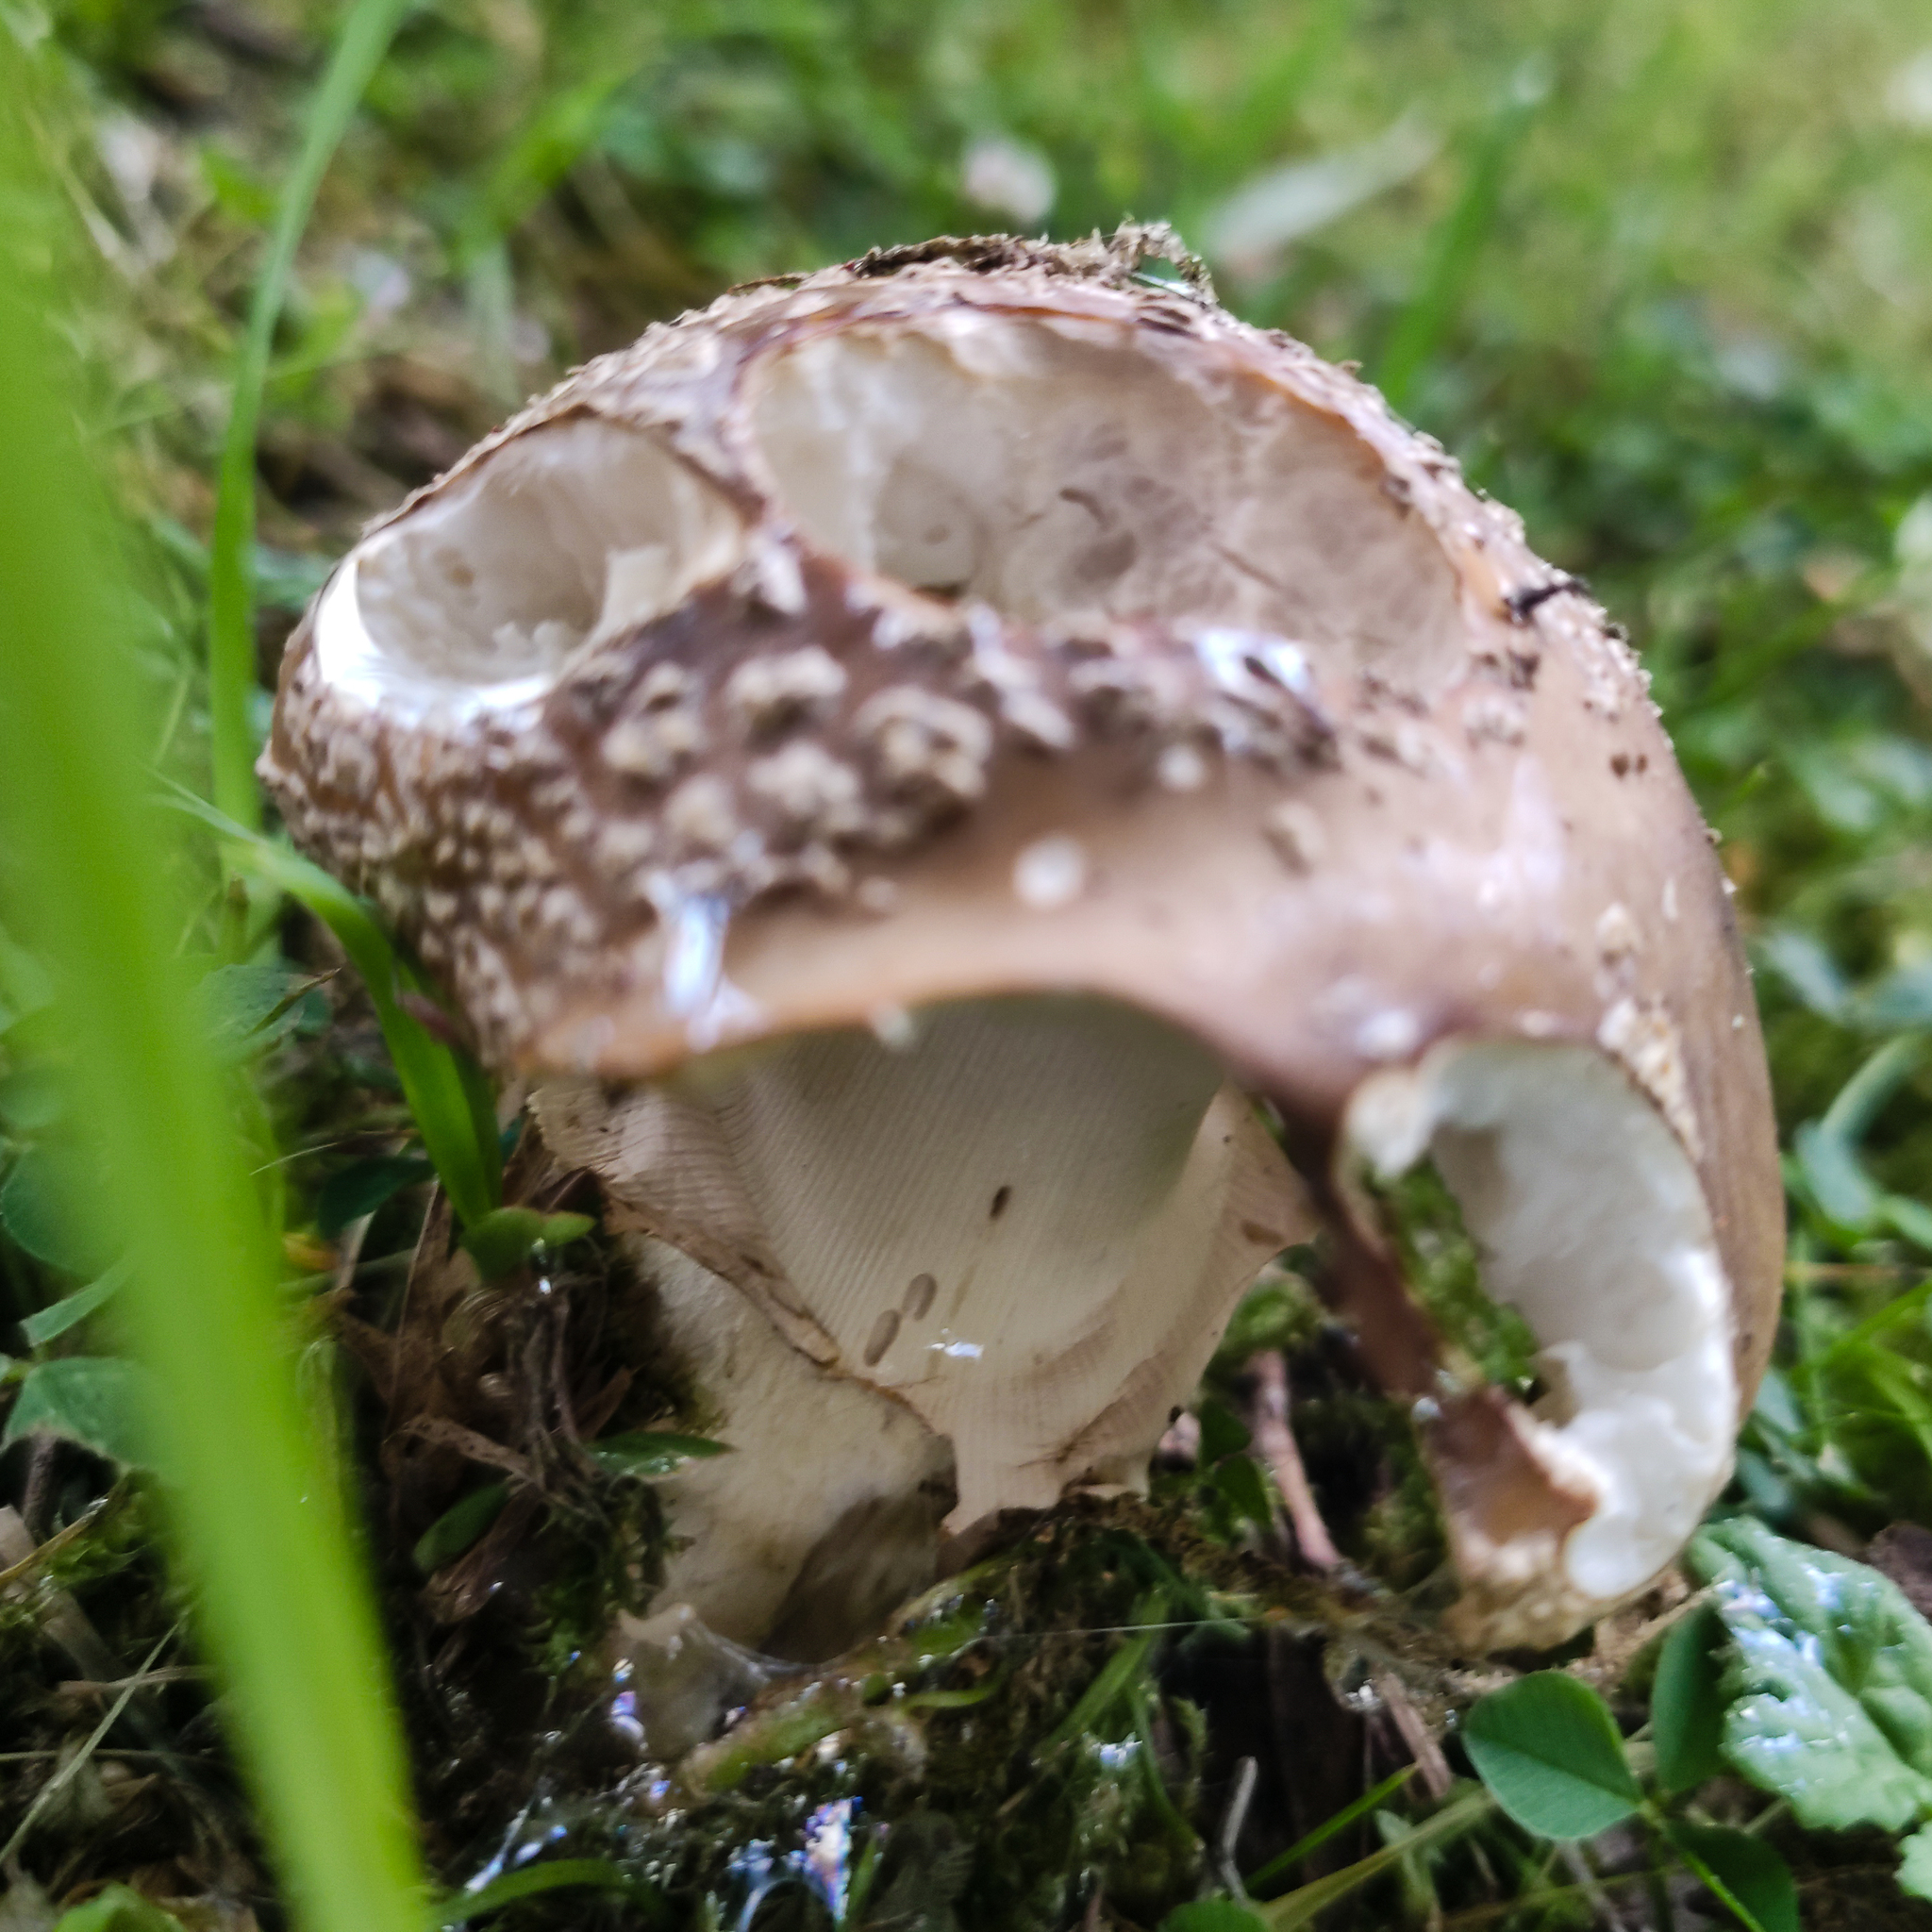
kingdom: Fungi
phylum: Basidiomycota
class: Agaricomycetes
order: Agaricales
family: Amanitaceae
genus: Amanita
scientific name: Amanita excelsa
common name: European false blusher
